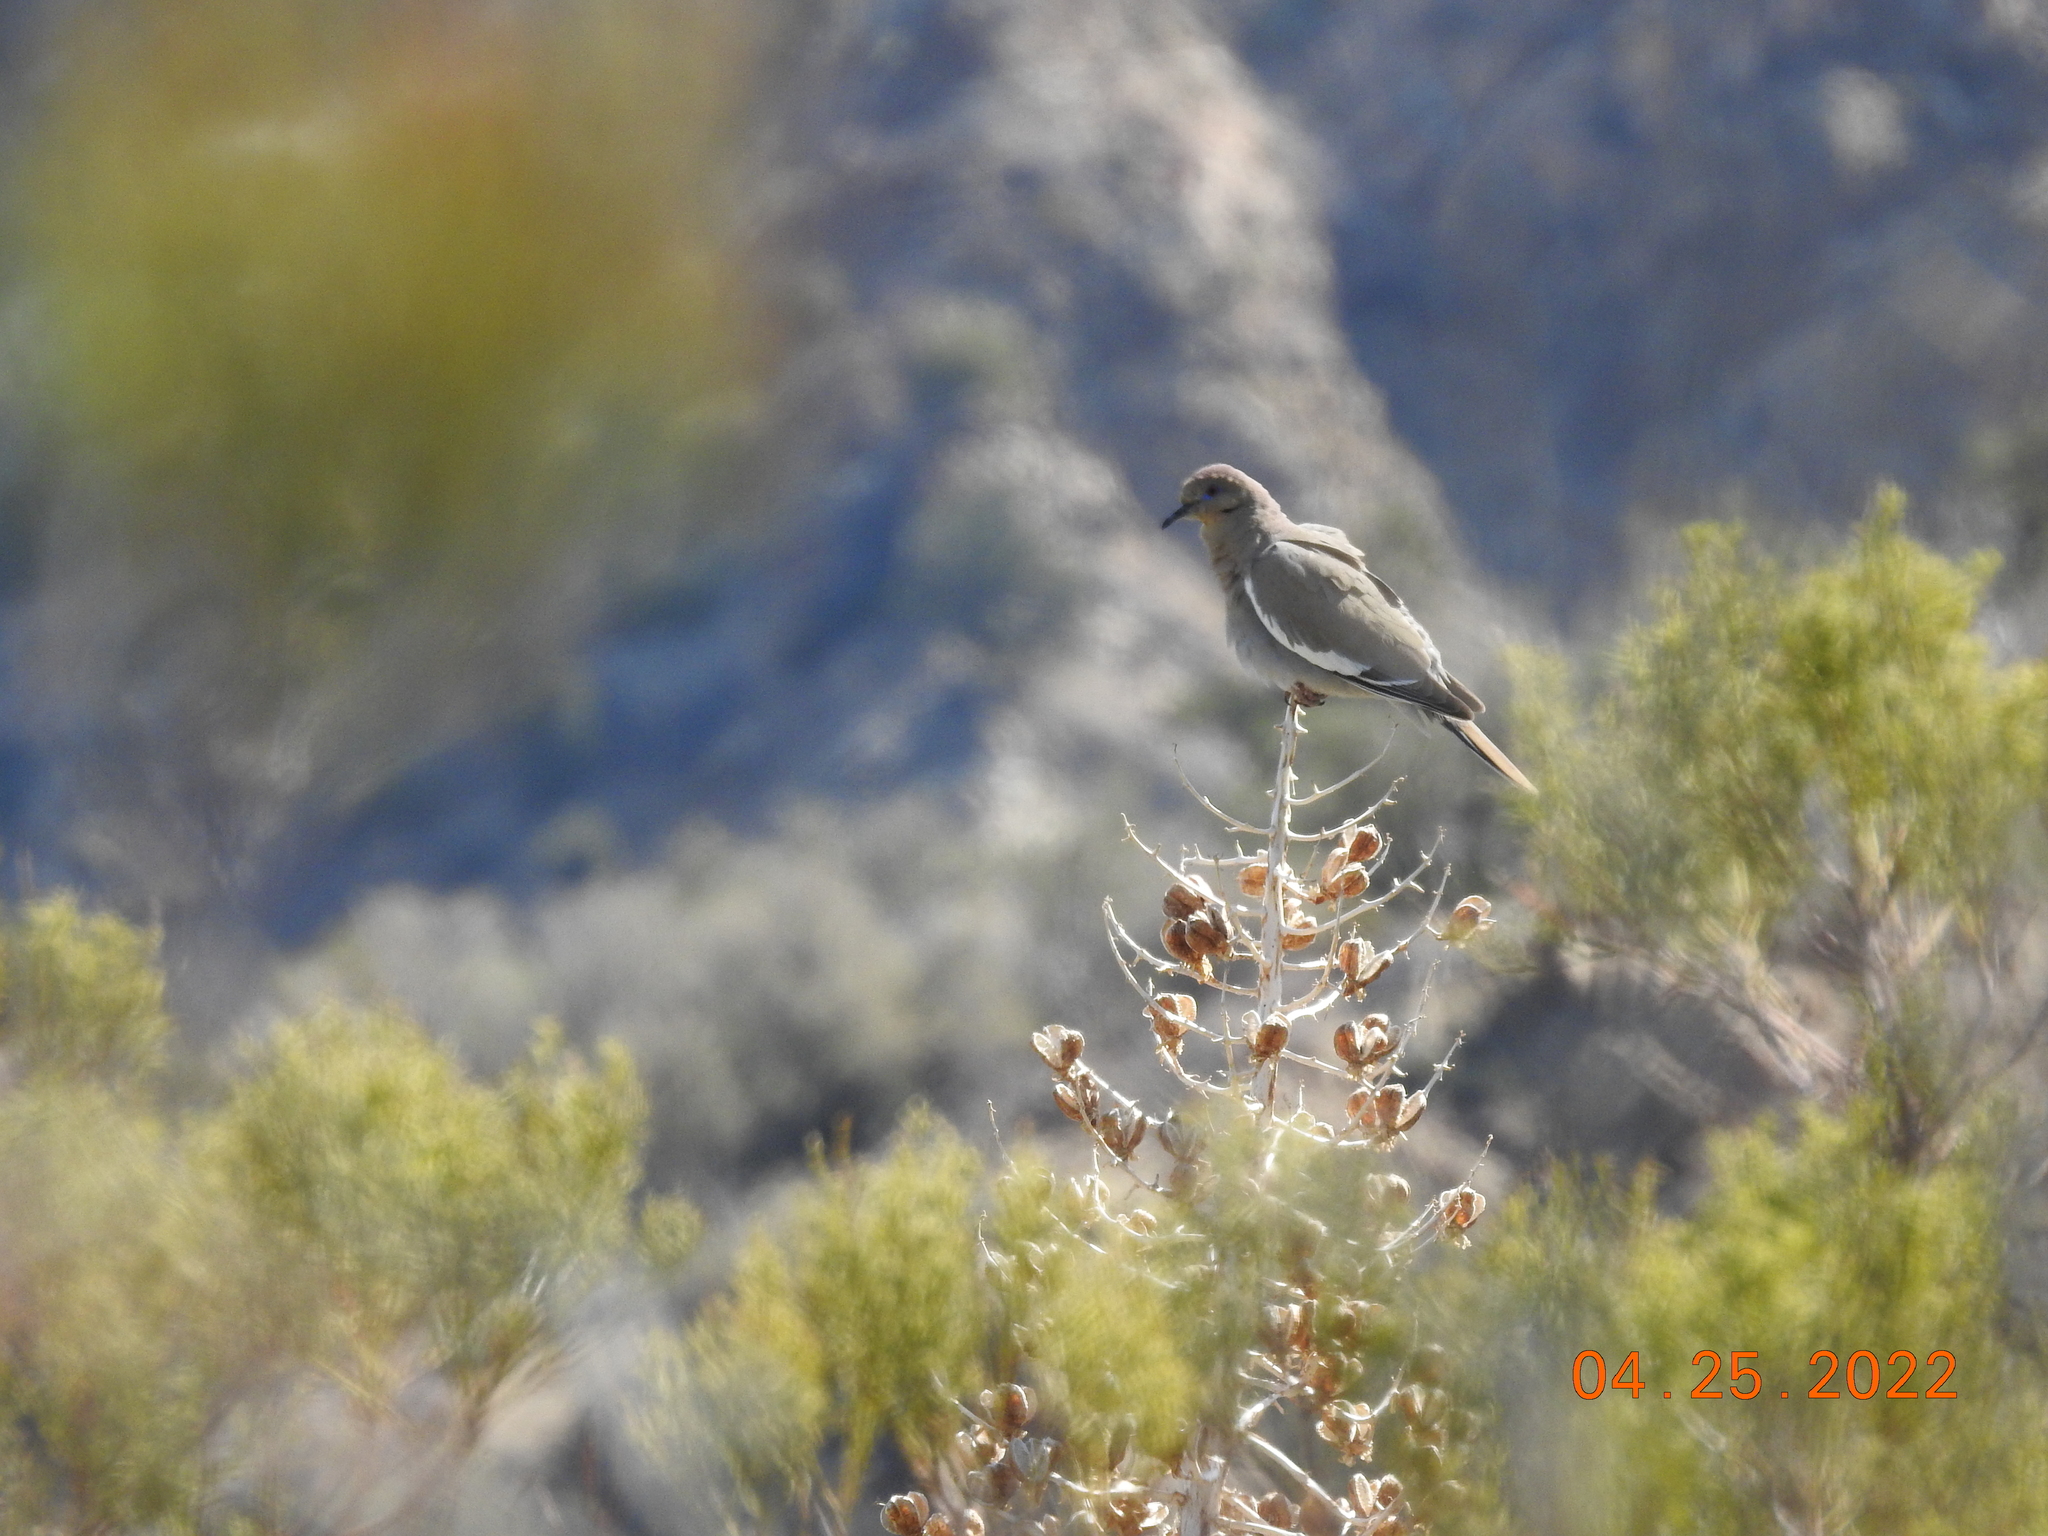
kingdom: Animalia
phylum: Chordata
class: Aves
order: Columbiformes
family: Columbidae
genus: Zenaida
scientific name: Zenaida asiatica
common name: White-winged dove
